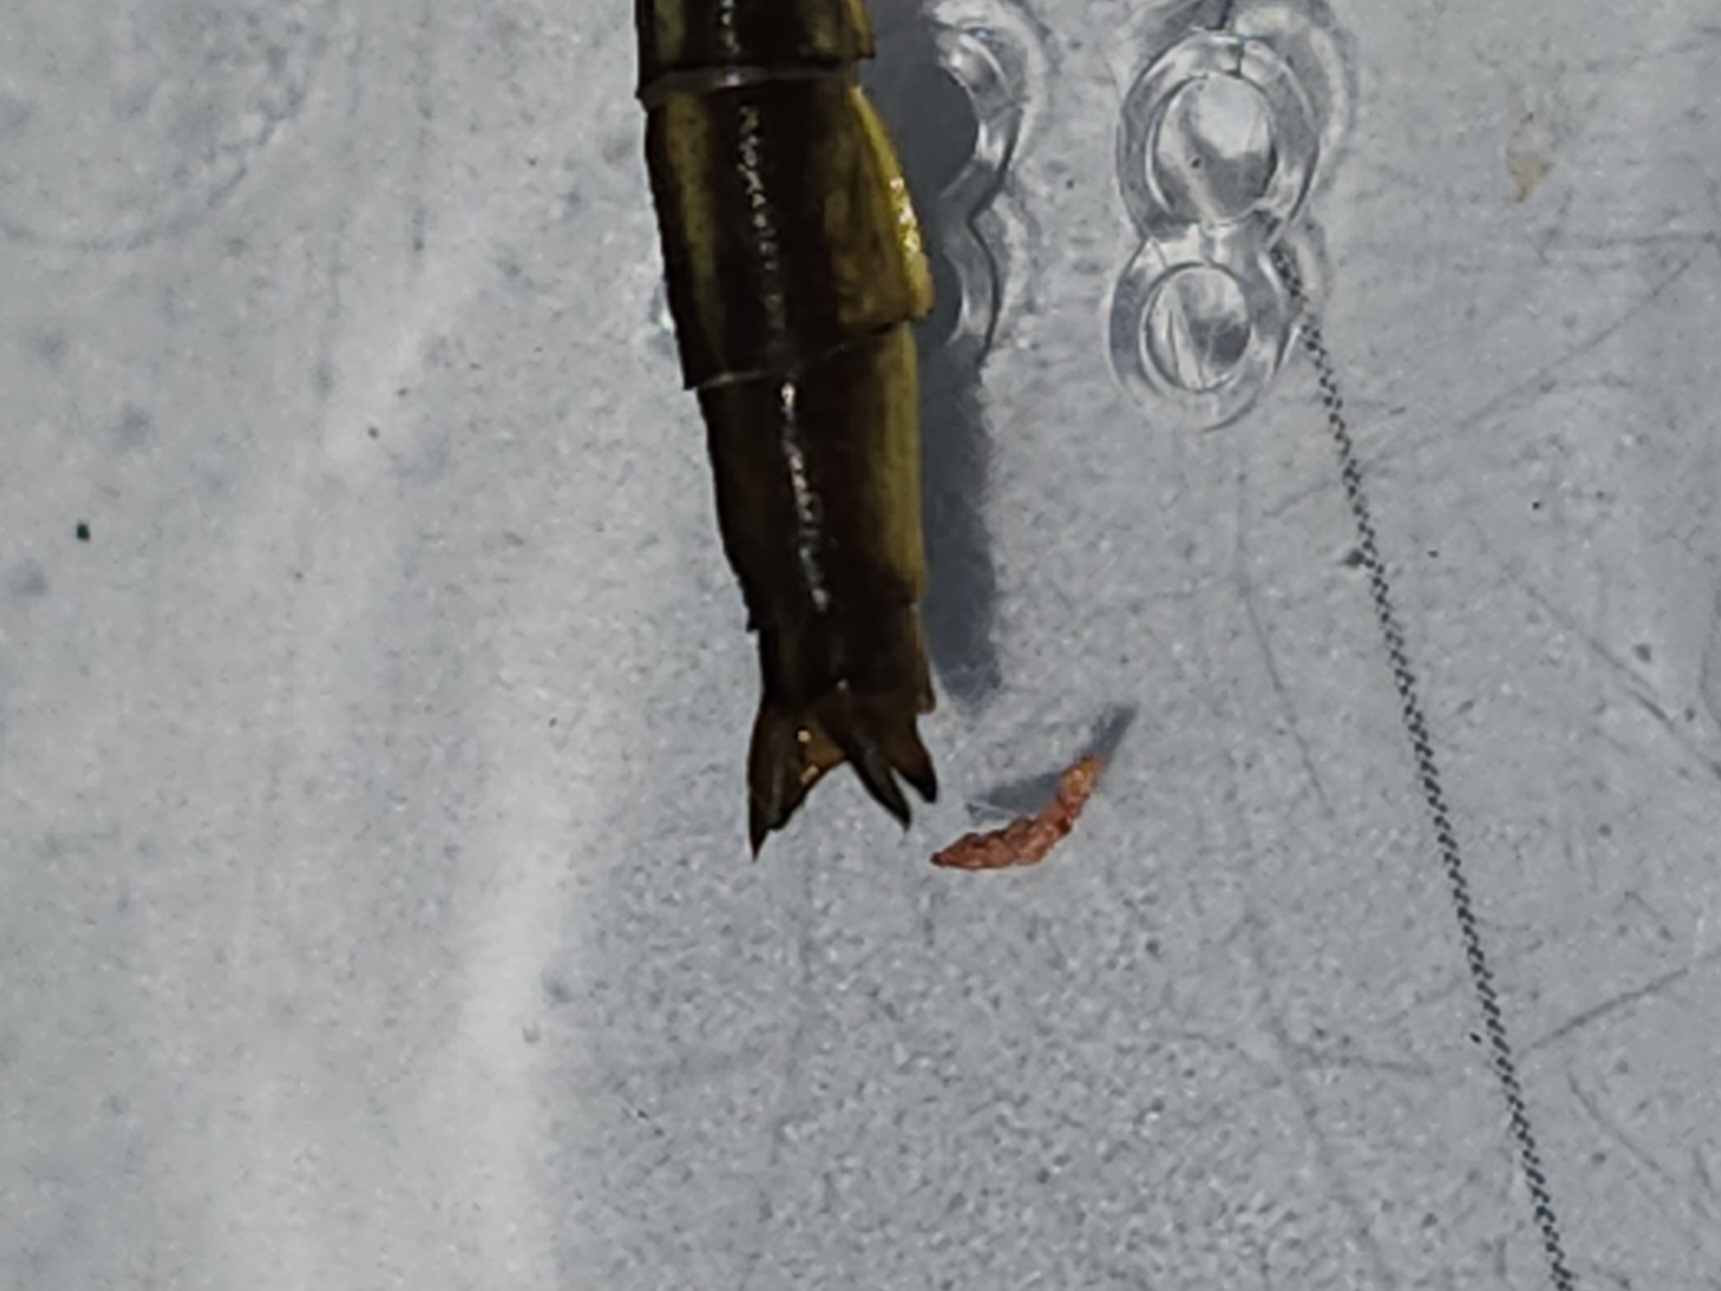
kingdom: Animalia
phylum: Arthropoda
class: Insecta
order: Odonata
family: Gomphidae
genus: Phanogomphus
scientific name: Phanogomphus minutus
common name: Cypress clubtail
